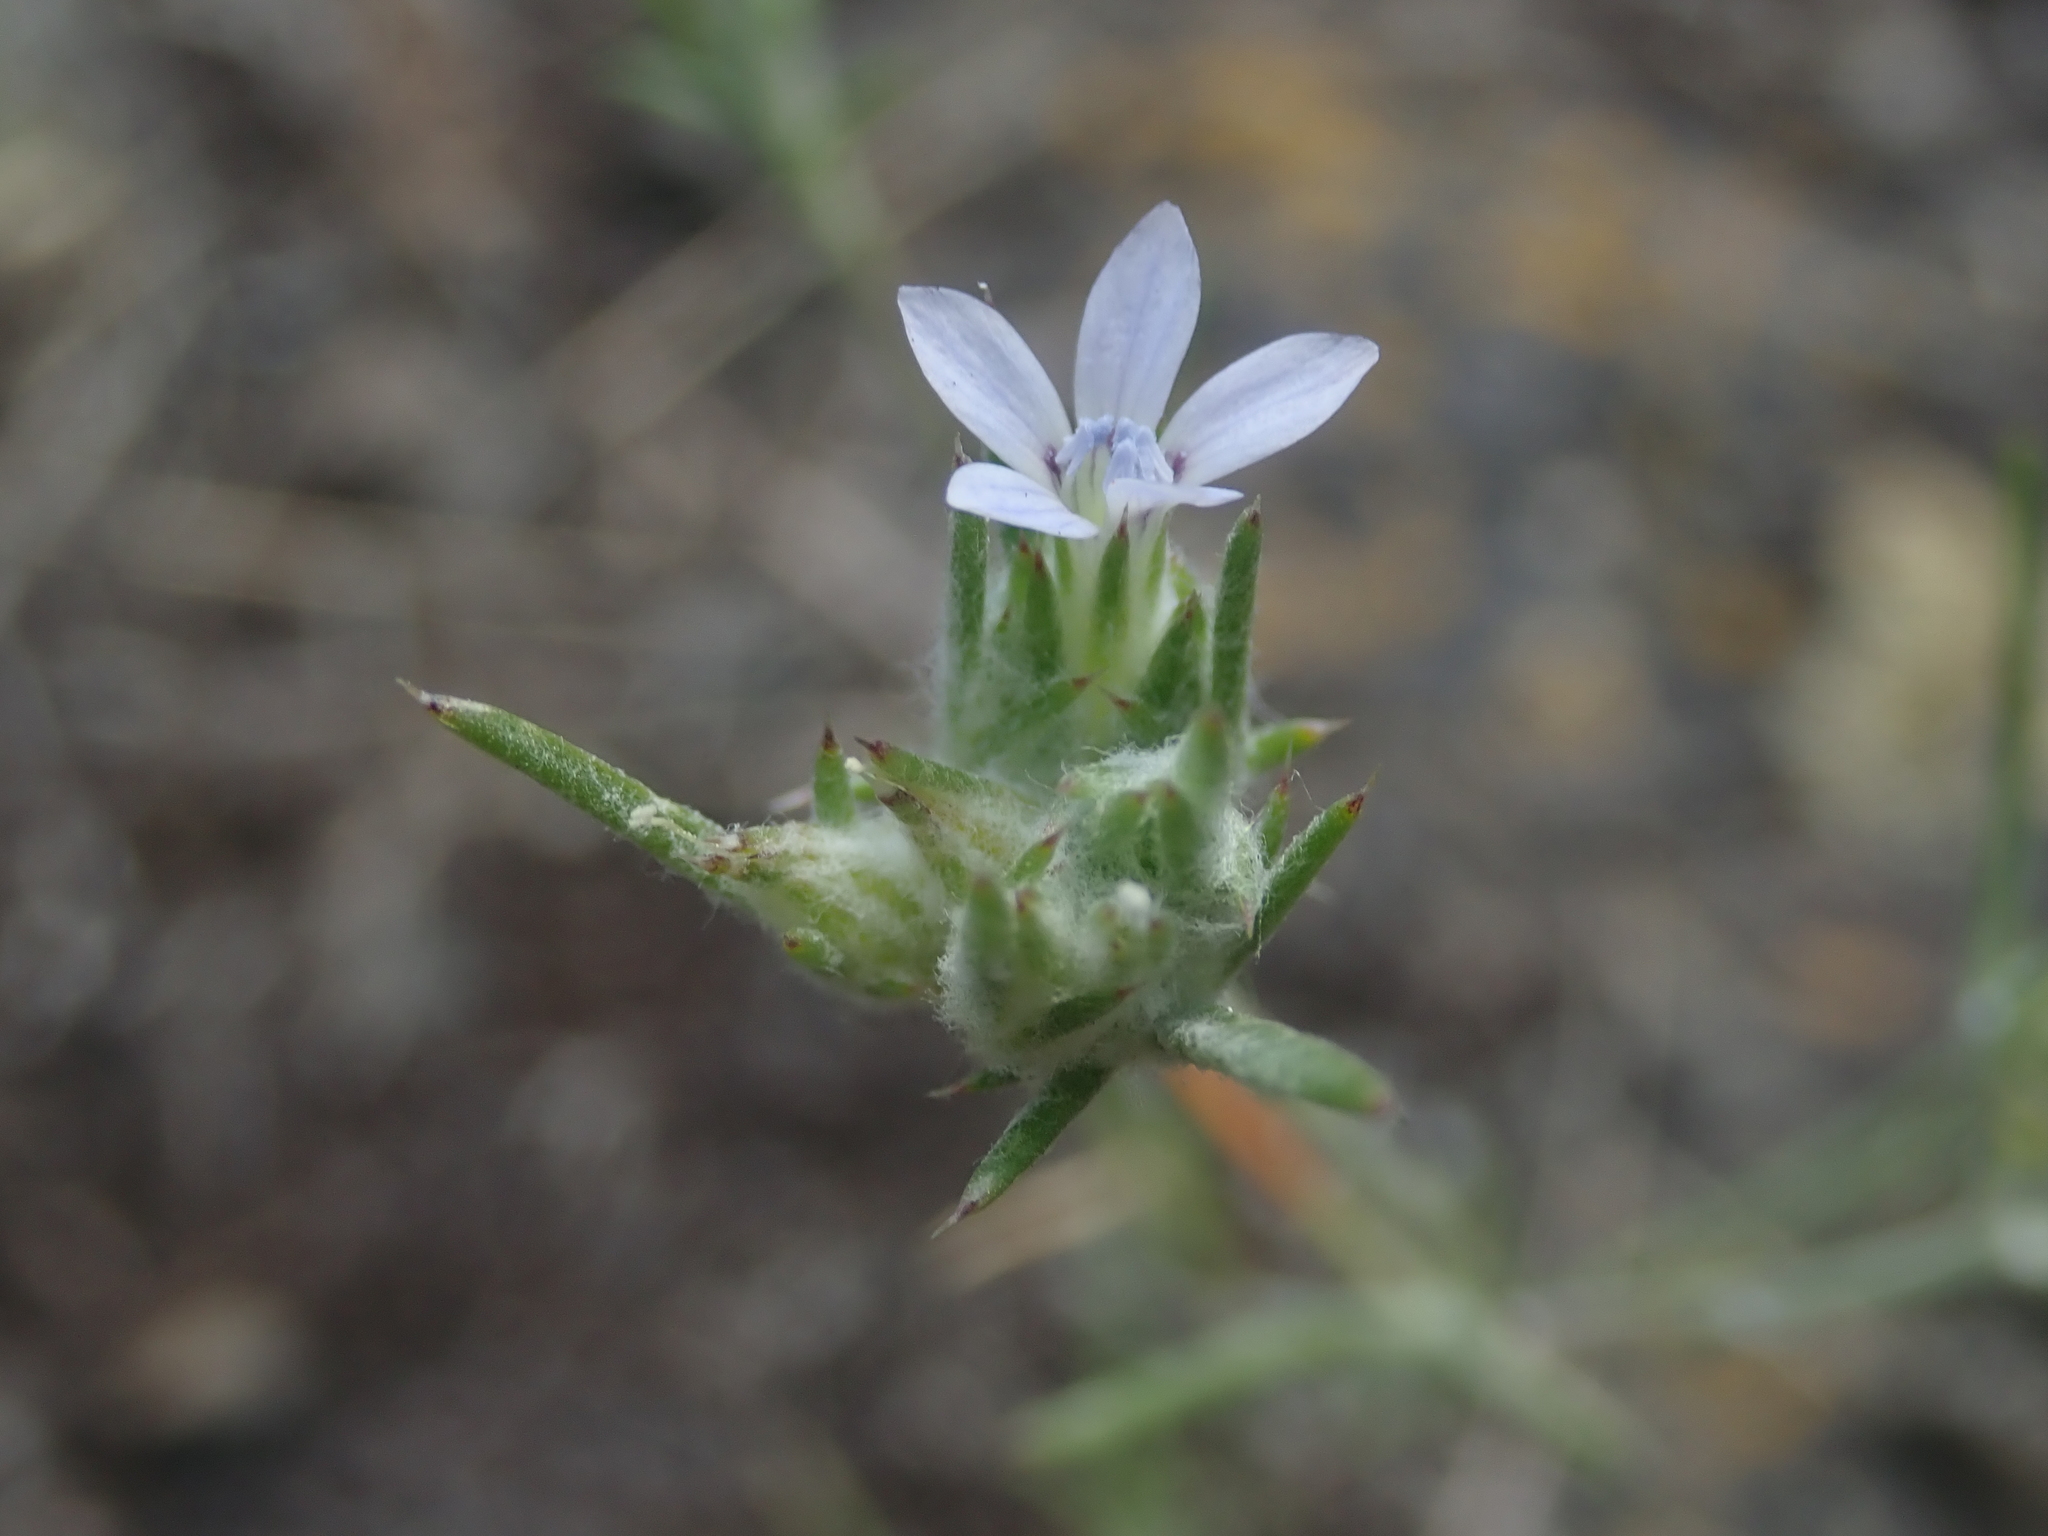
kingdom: Plantae
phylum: Tracheophyta
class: Magnoliopsida
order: Ericales
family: Polemoniaceae
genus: Eriastrum
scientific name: Eriastrum wilcoxii
